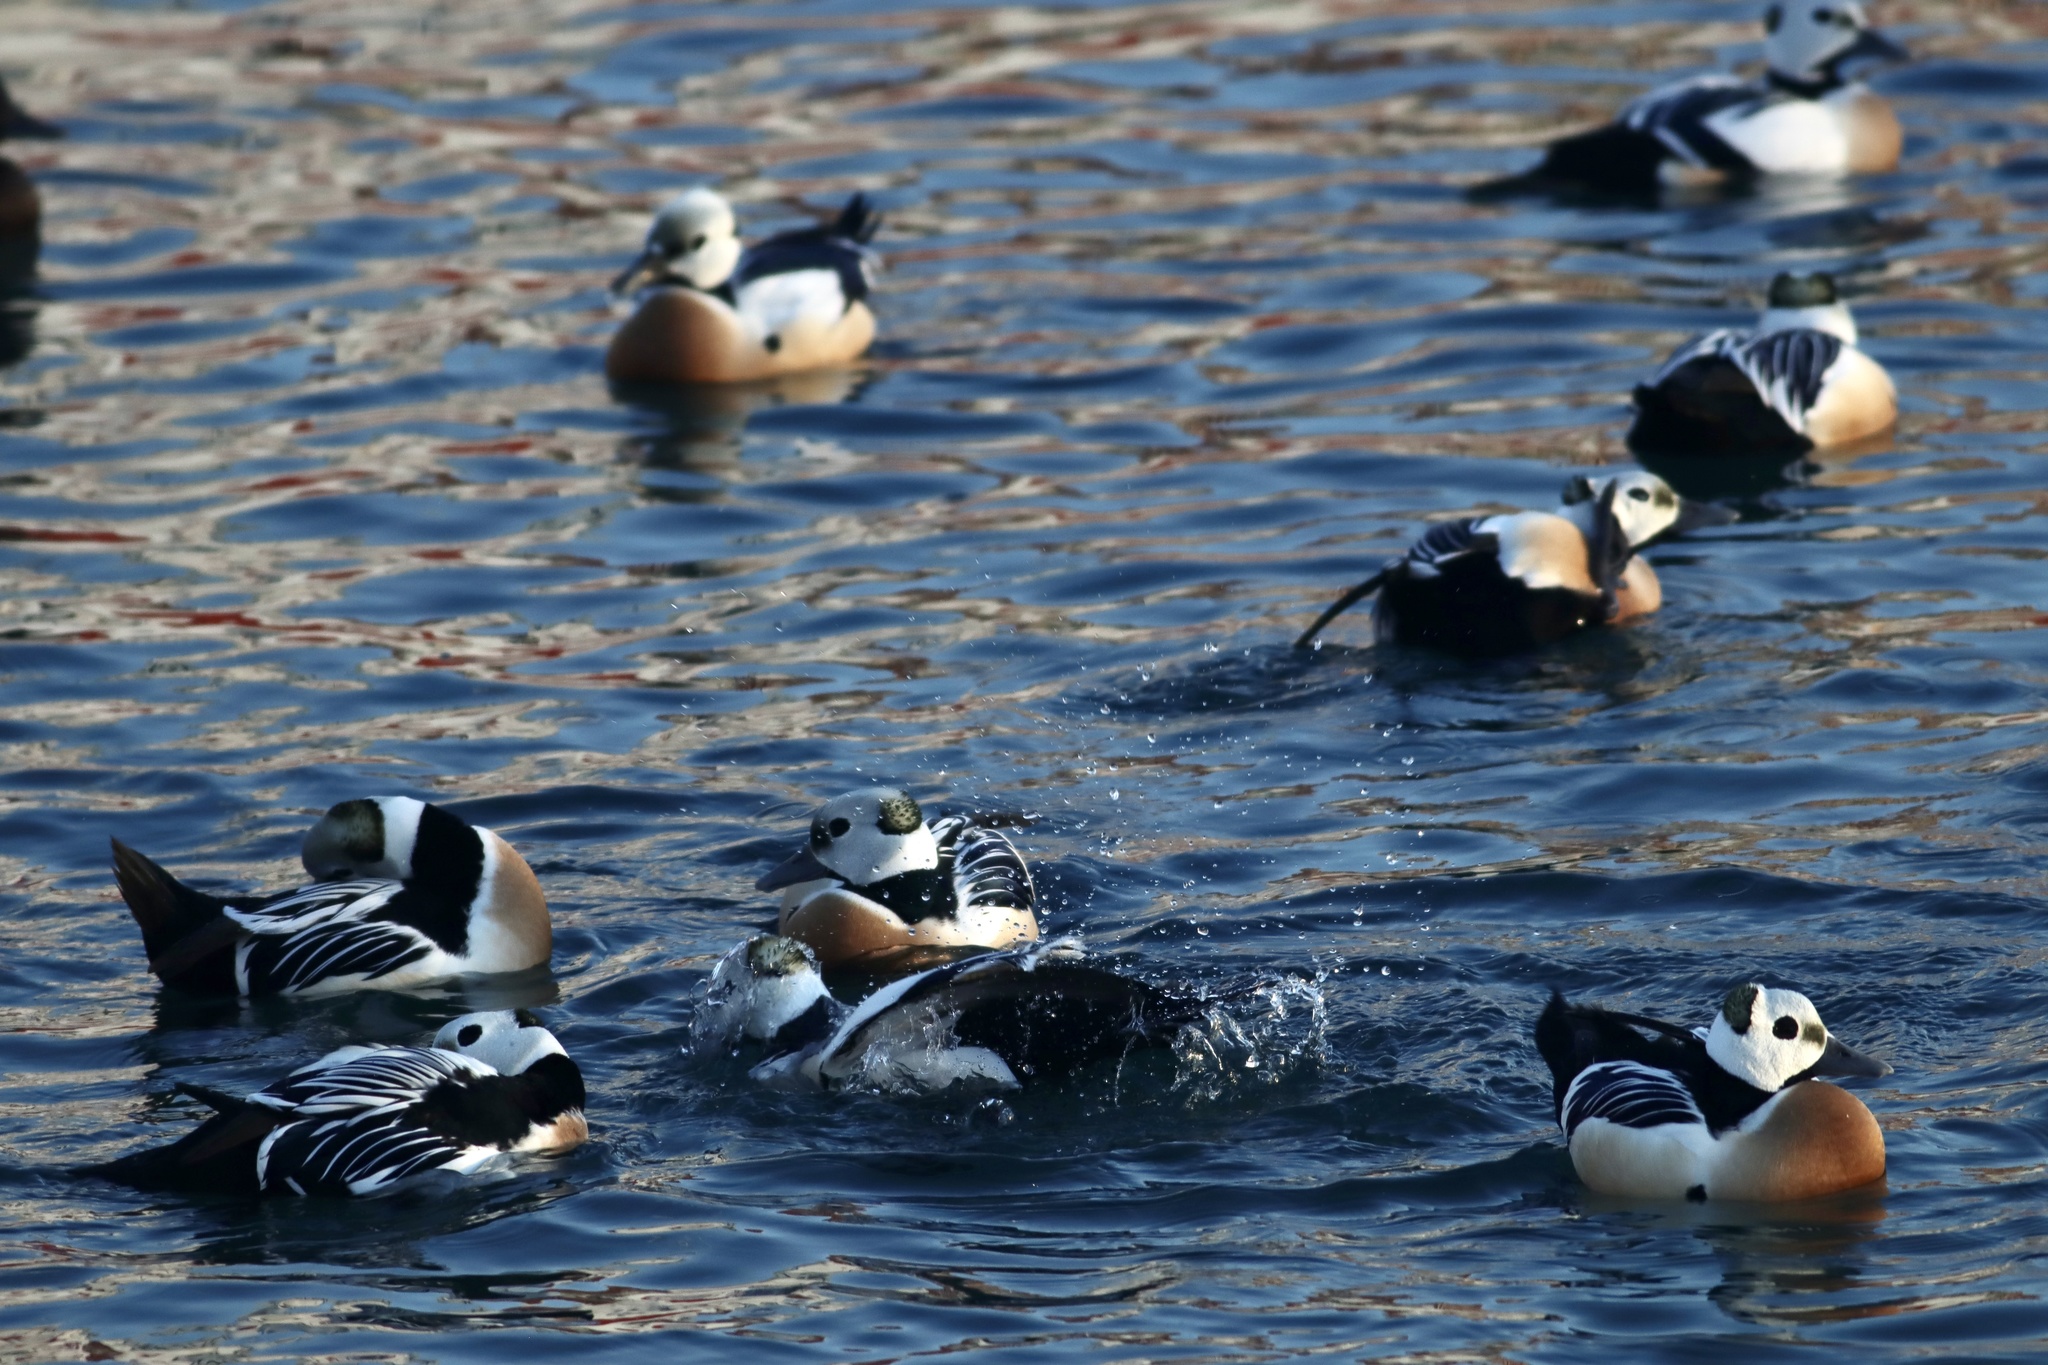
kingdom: Animalia
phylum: Chordata
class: Aves
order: Anseriformes
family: Anatidae
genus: Polysticta
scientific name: Polysticta stelleri
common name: Steller's eider
